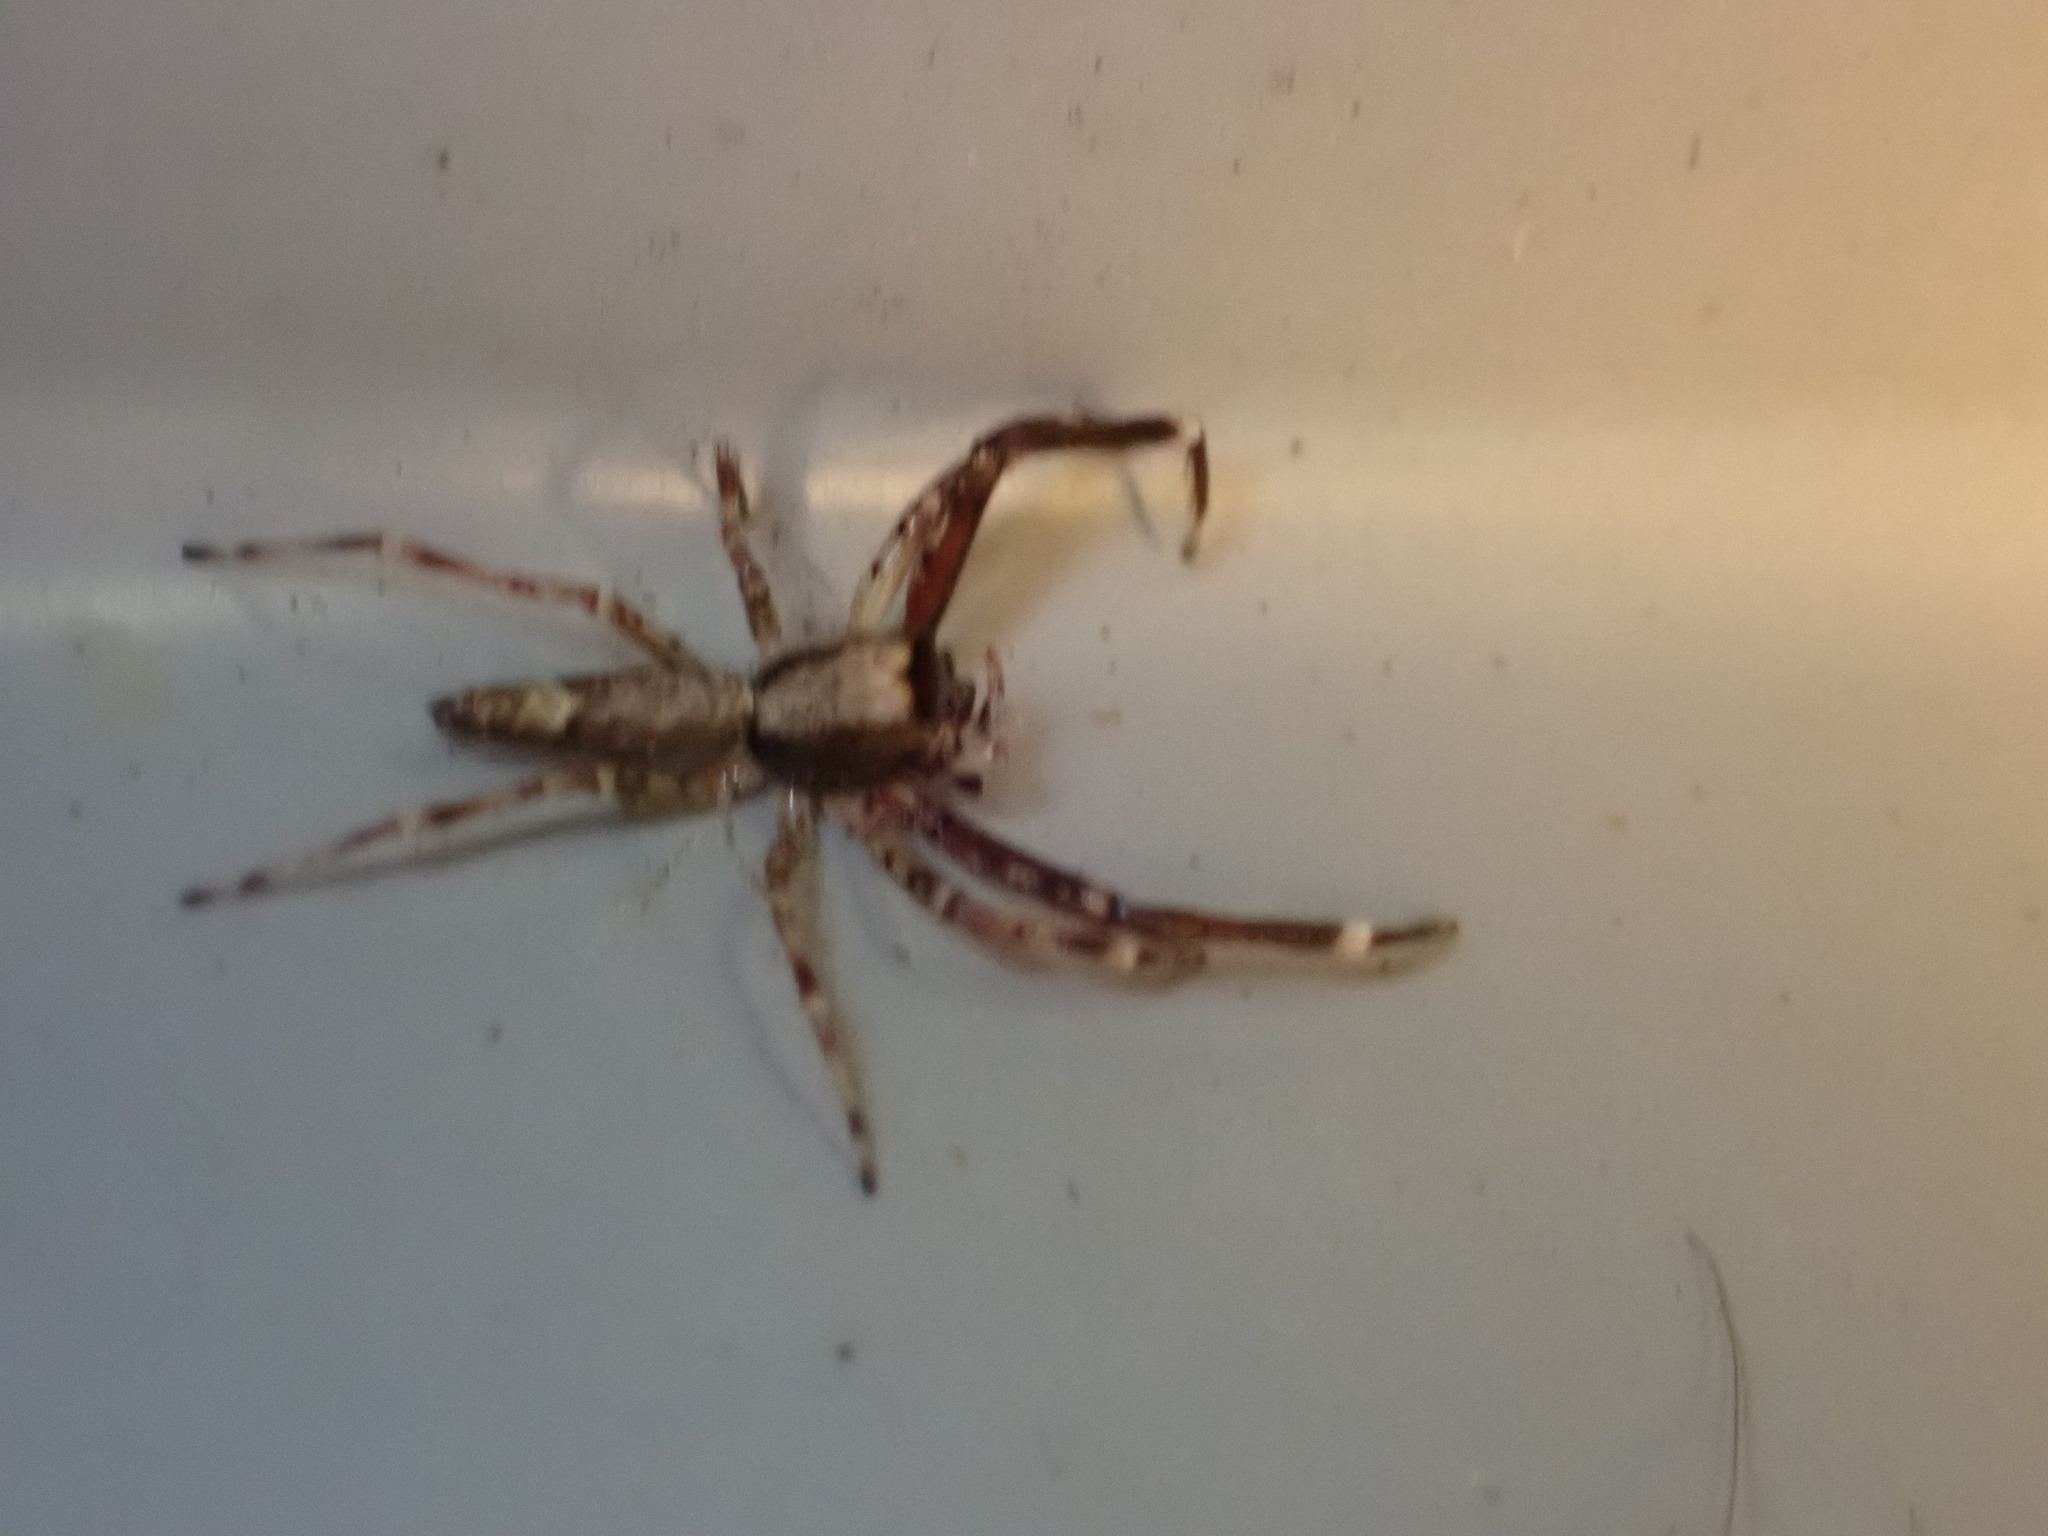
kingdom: Animalia
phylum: Arthropoda
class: Arachnida
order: Araneae
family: Salticidae
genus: Helpis
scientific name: Helpis minitabunda
